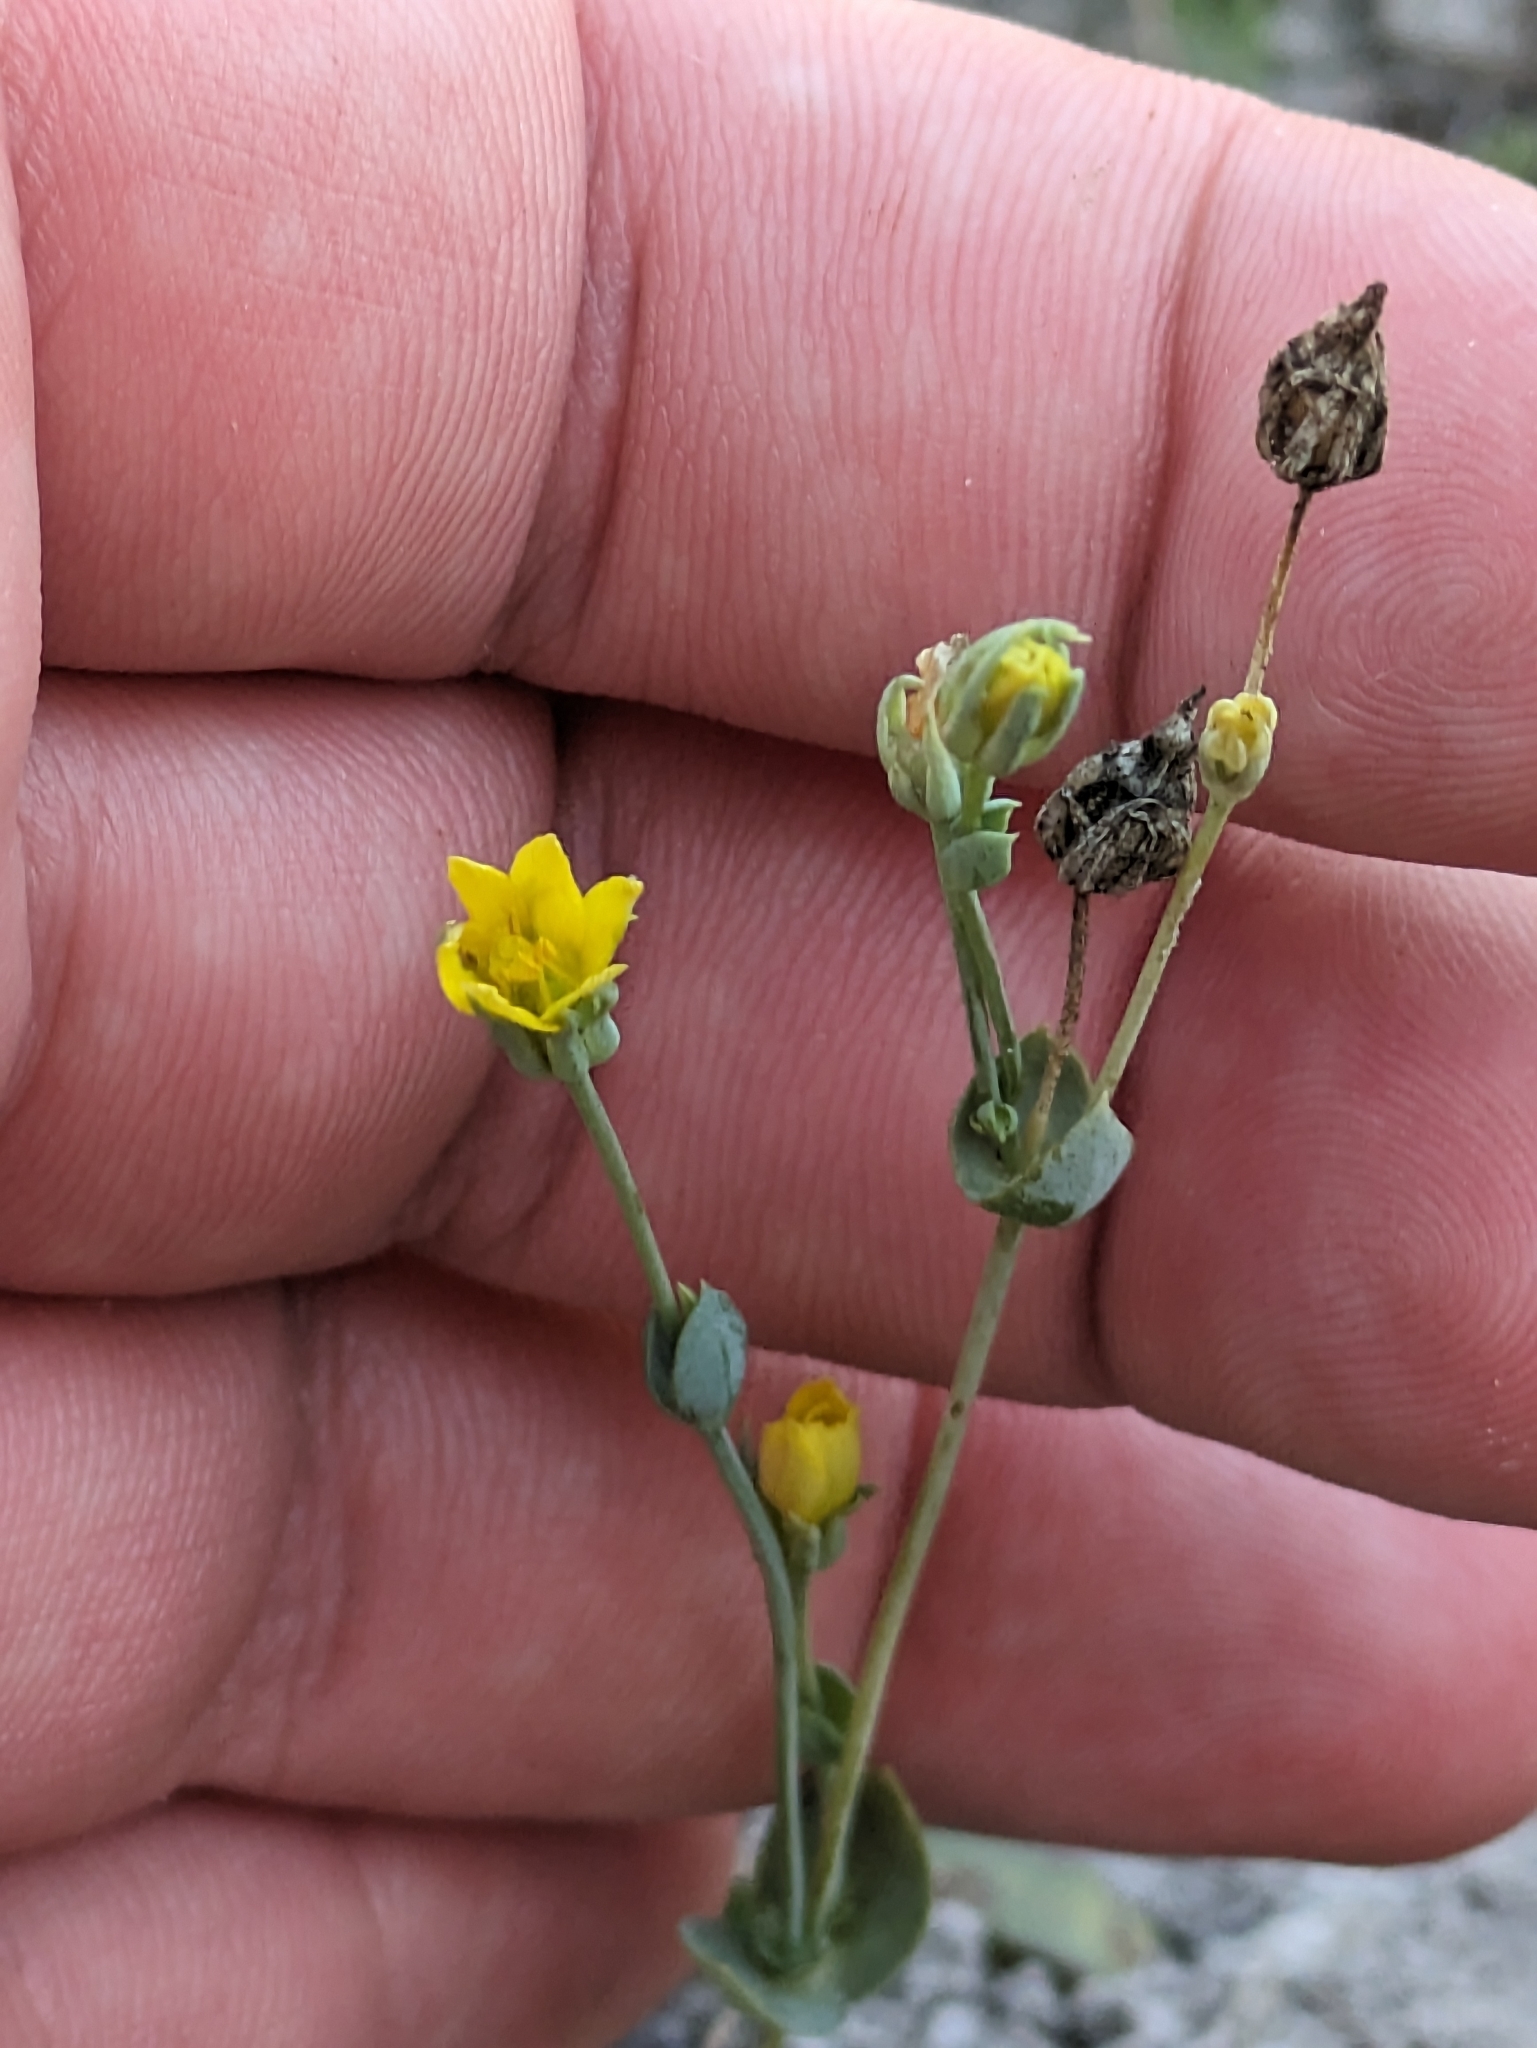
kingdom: Plantae
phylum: Tracheophyta
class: Magnoliopsida
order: Gentianales
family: Gentianaceae
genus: Blackstonia
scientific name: Blackstonia acuminata
